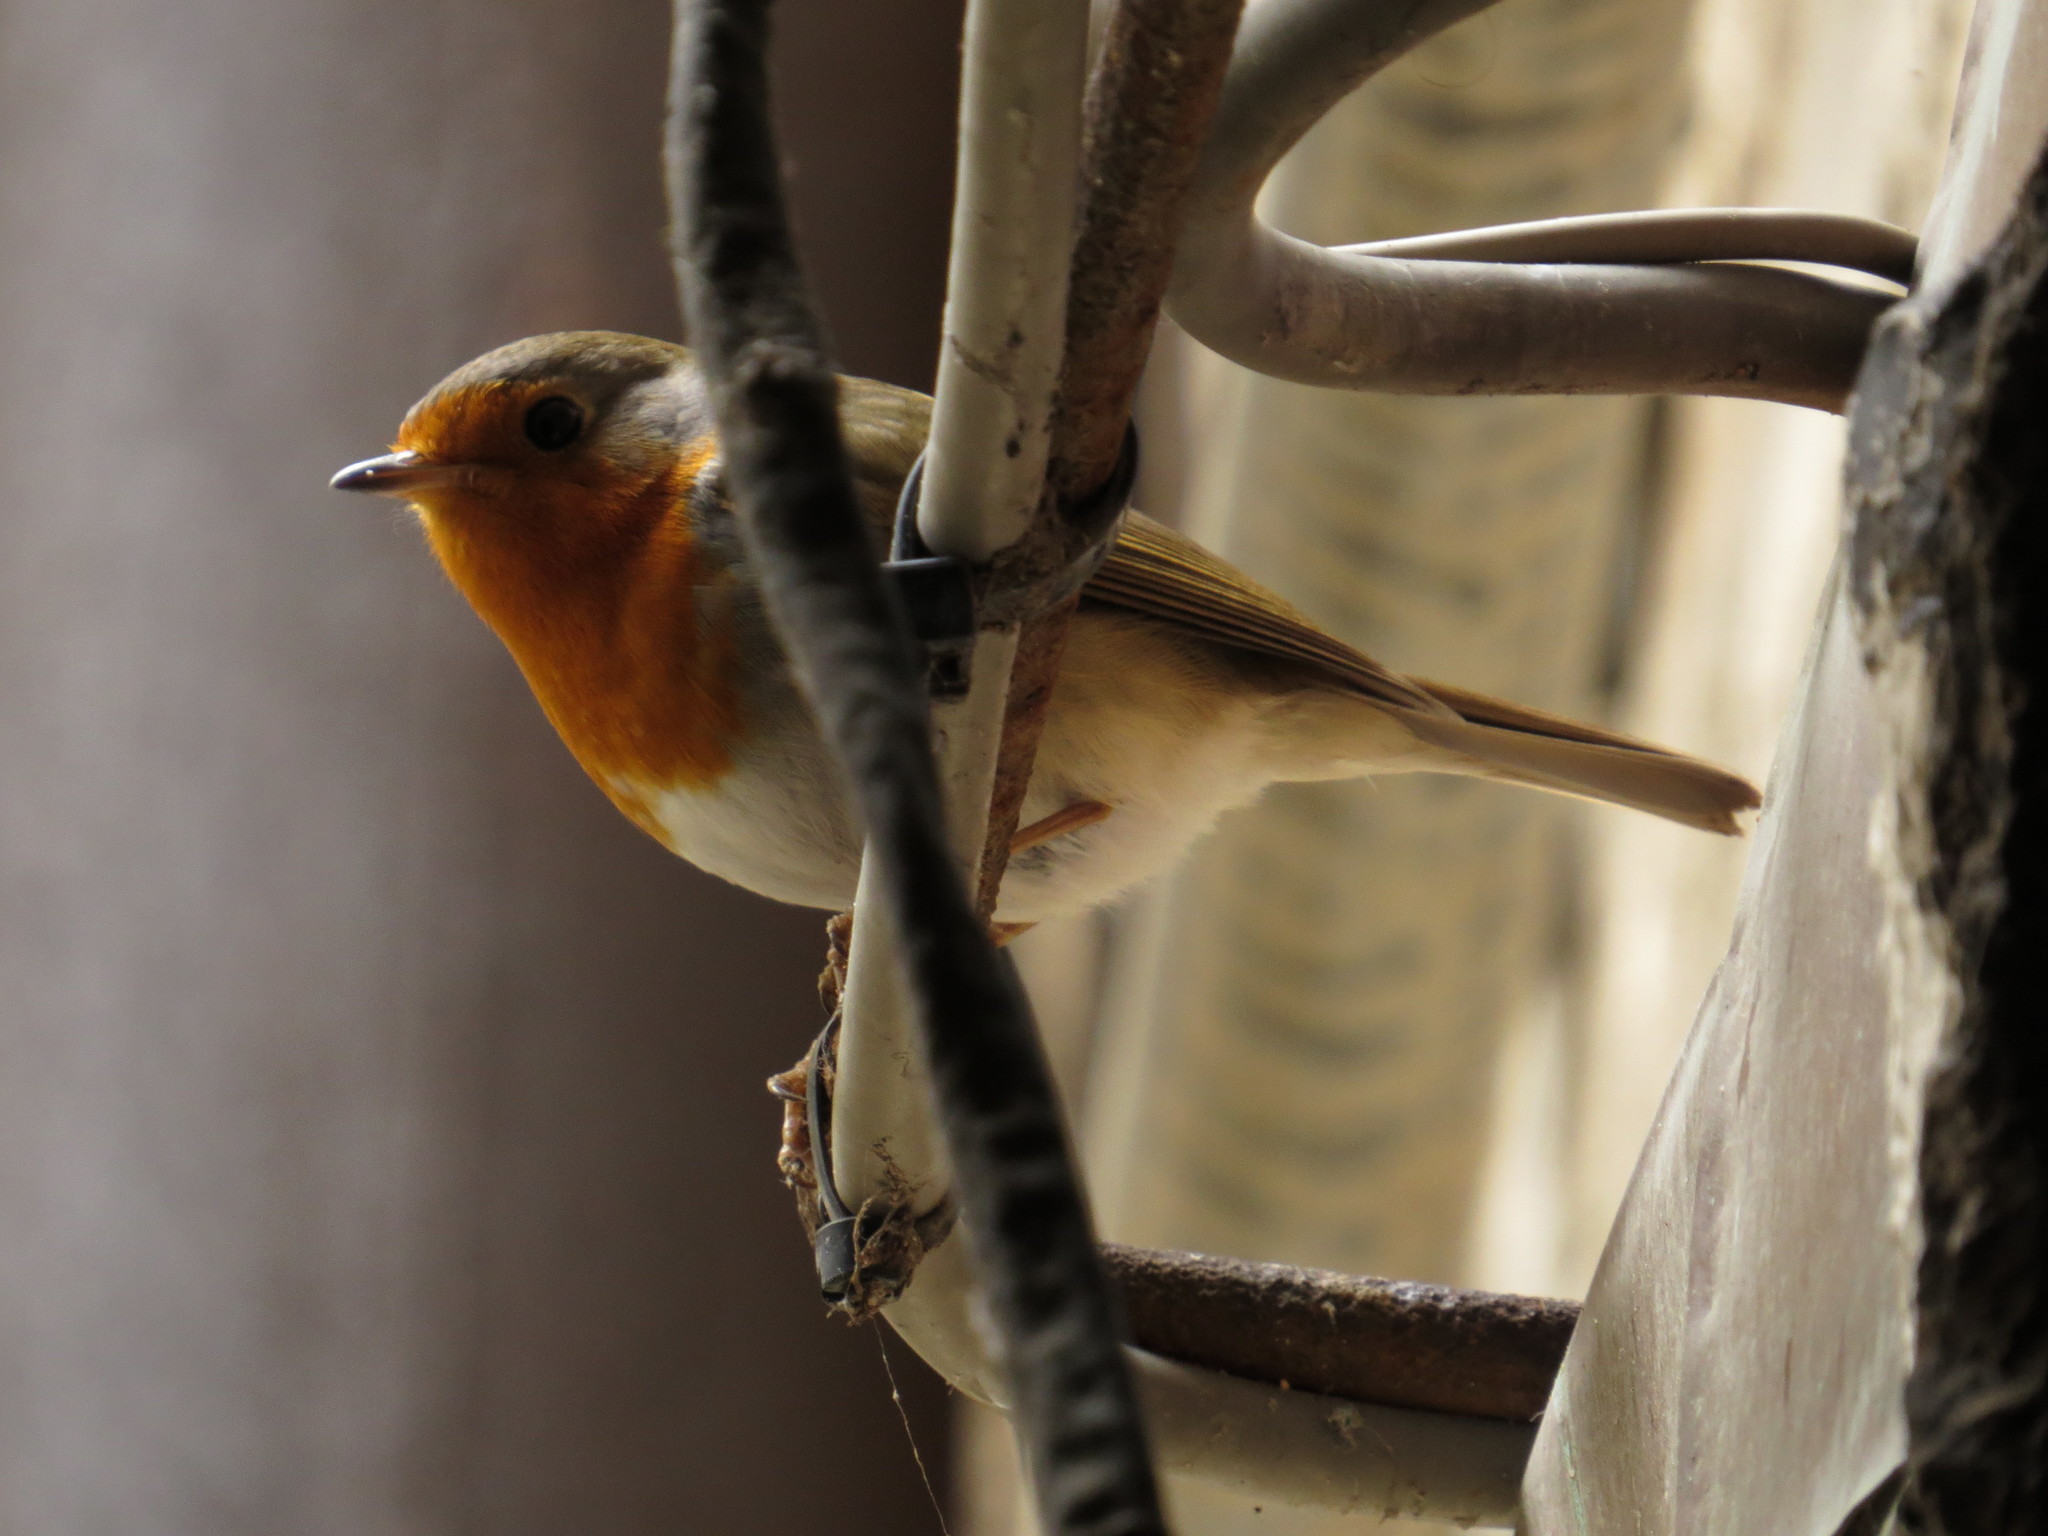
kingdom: Animalia
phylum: Chordata
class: Aves
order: Passeriformes
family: Muscicapidae
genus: Erithacus
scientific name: Erithacus rubecula
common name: European robin
